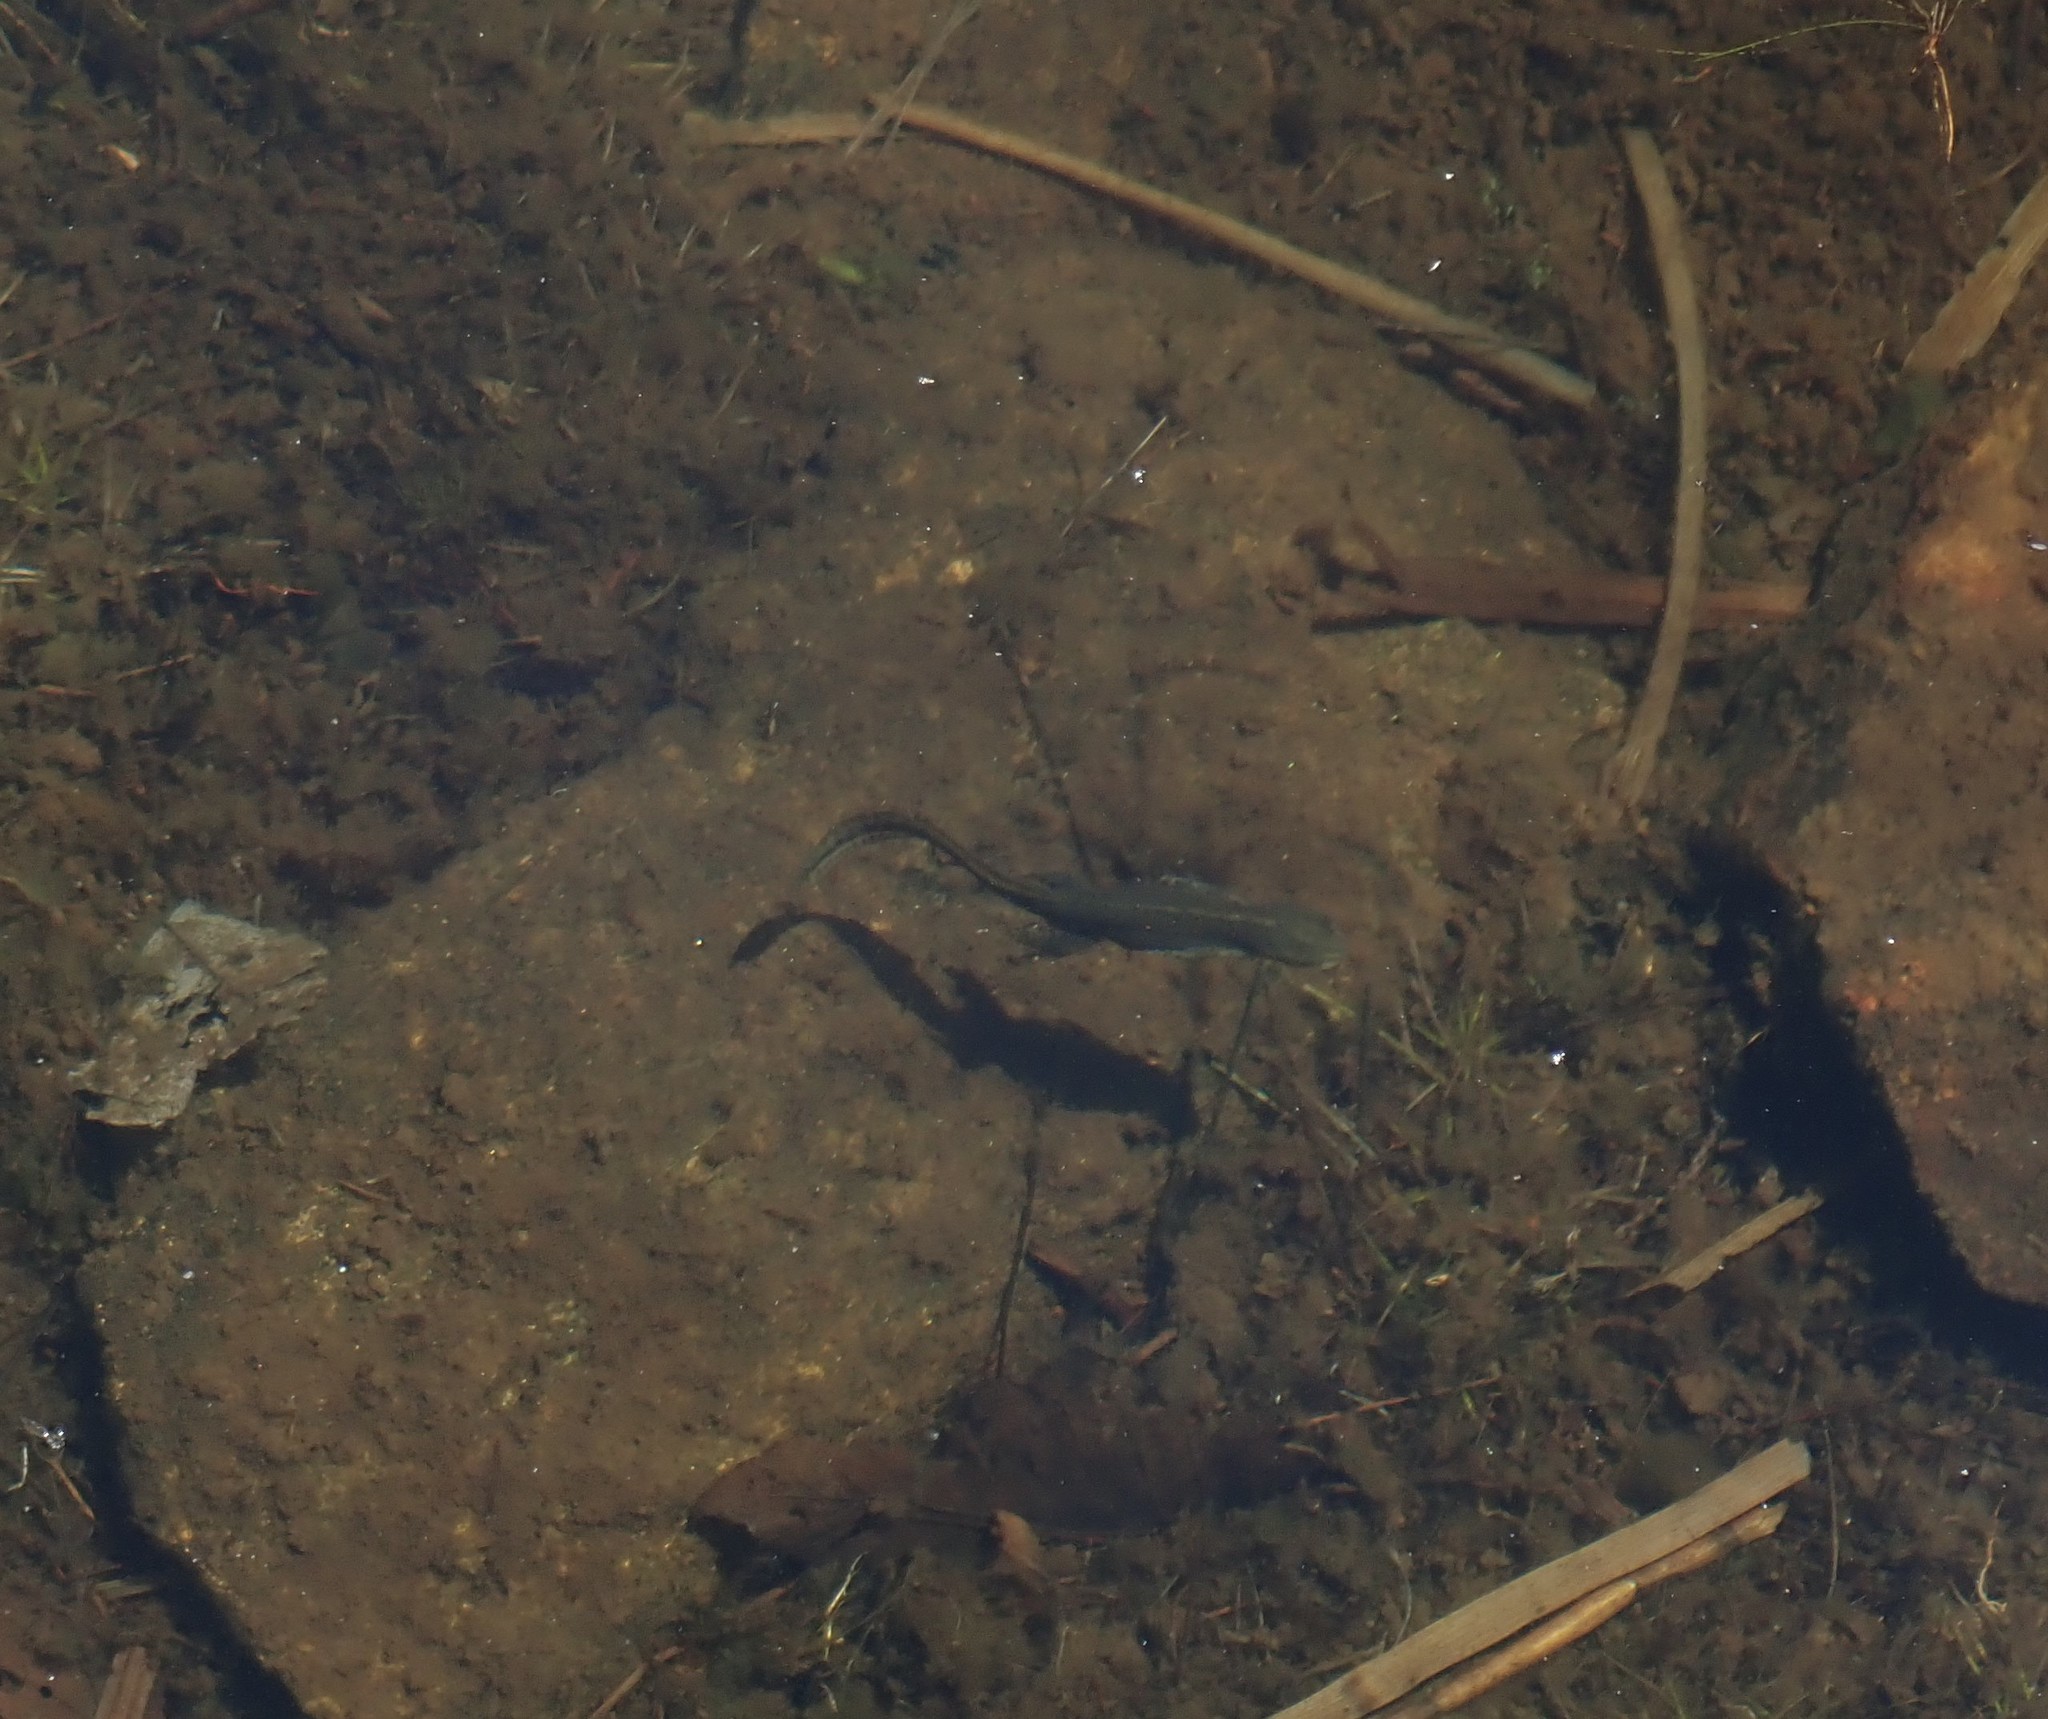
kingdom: Animalia
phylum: Chordata
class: Amphibia
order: Caudata
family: Salamandridae
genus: Notophthalmus
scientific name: Notophthalmus viridescens
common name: Eastern newt
